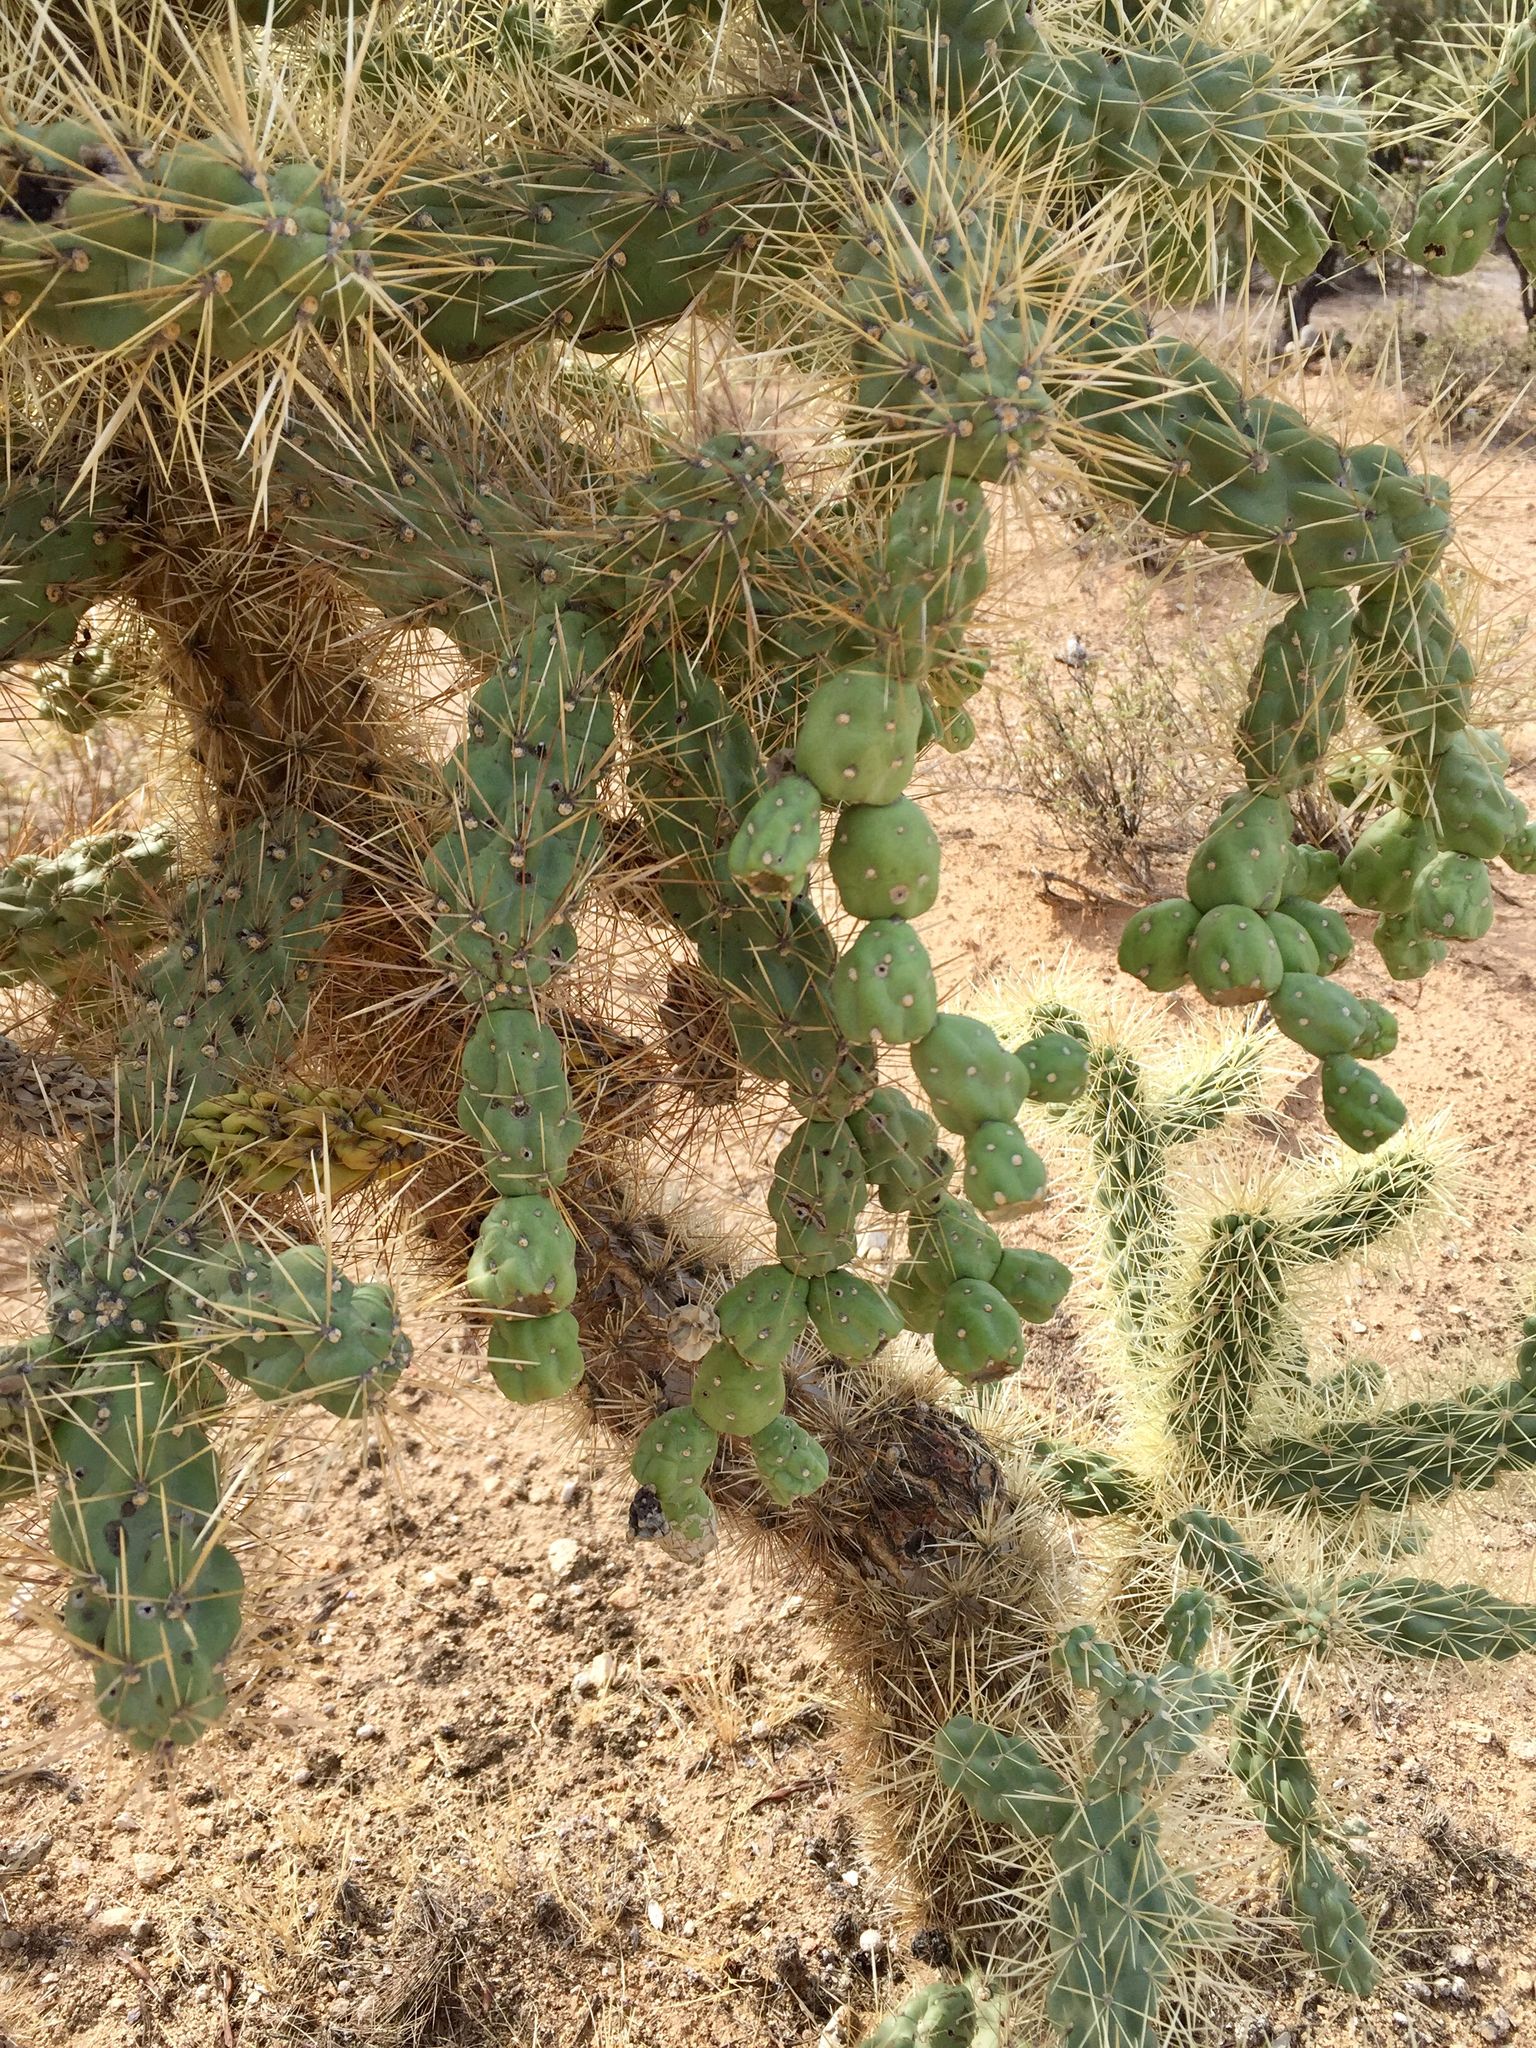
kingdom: Plantae
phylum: Tracheophyta
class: Magnoliopsida
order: Caryophyllales
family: Cactaceae
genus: Cylindropuntia
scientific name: Cylindropuntia fulgida
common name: Jumping cholla
